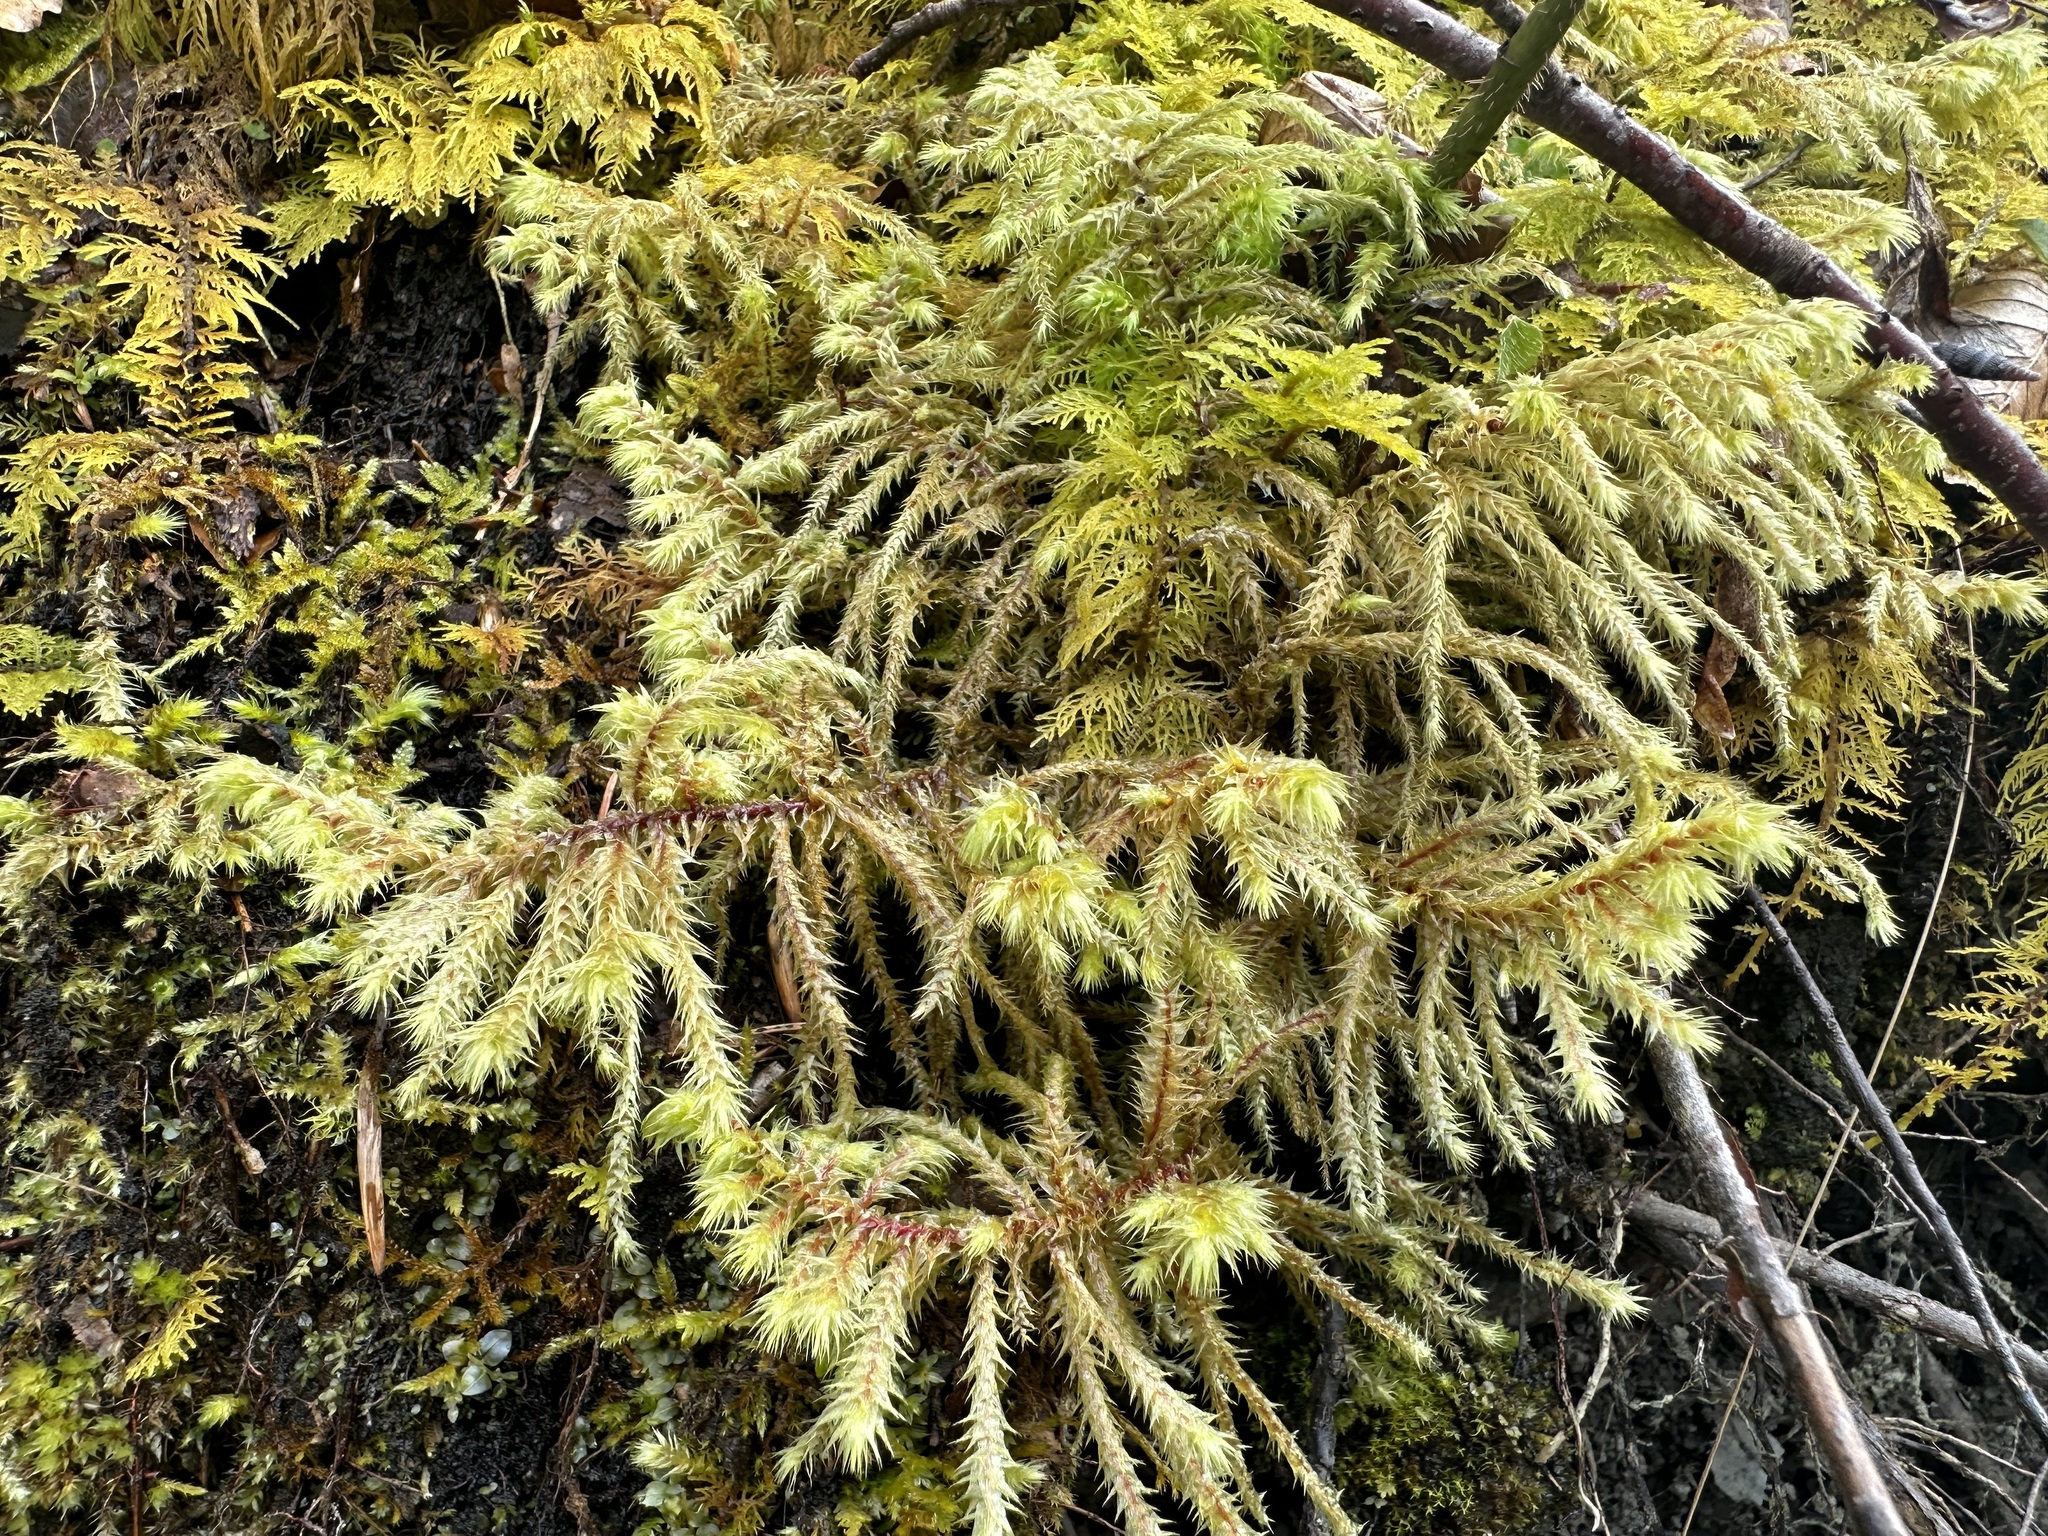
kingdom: Plantae
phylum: Bryophyta
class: Bryopsida
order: Hypnales
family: Hylocomiaceae
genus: Hylocomiadelphus
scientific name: Hylocomiadelphus triquetrus
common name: Rough goose neck moss
